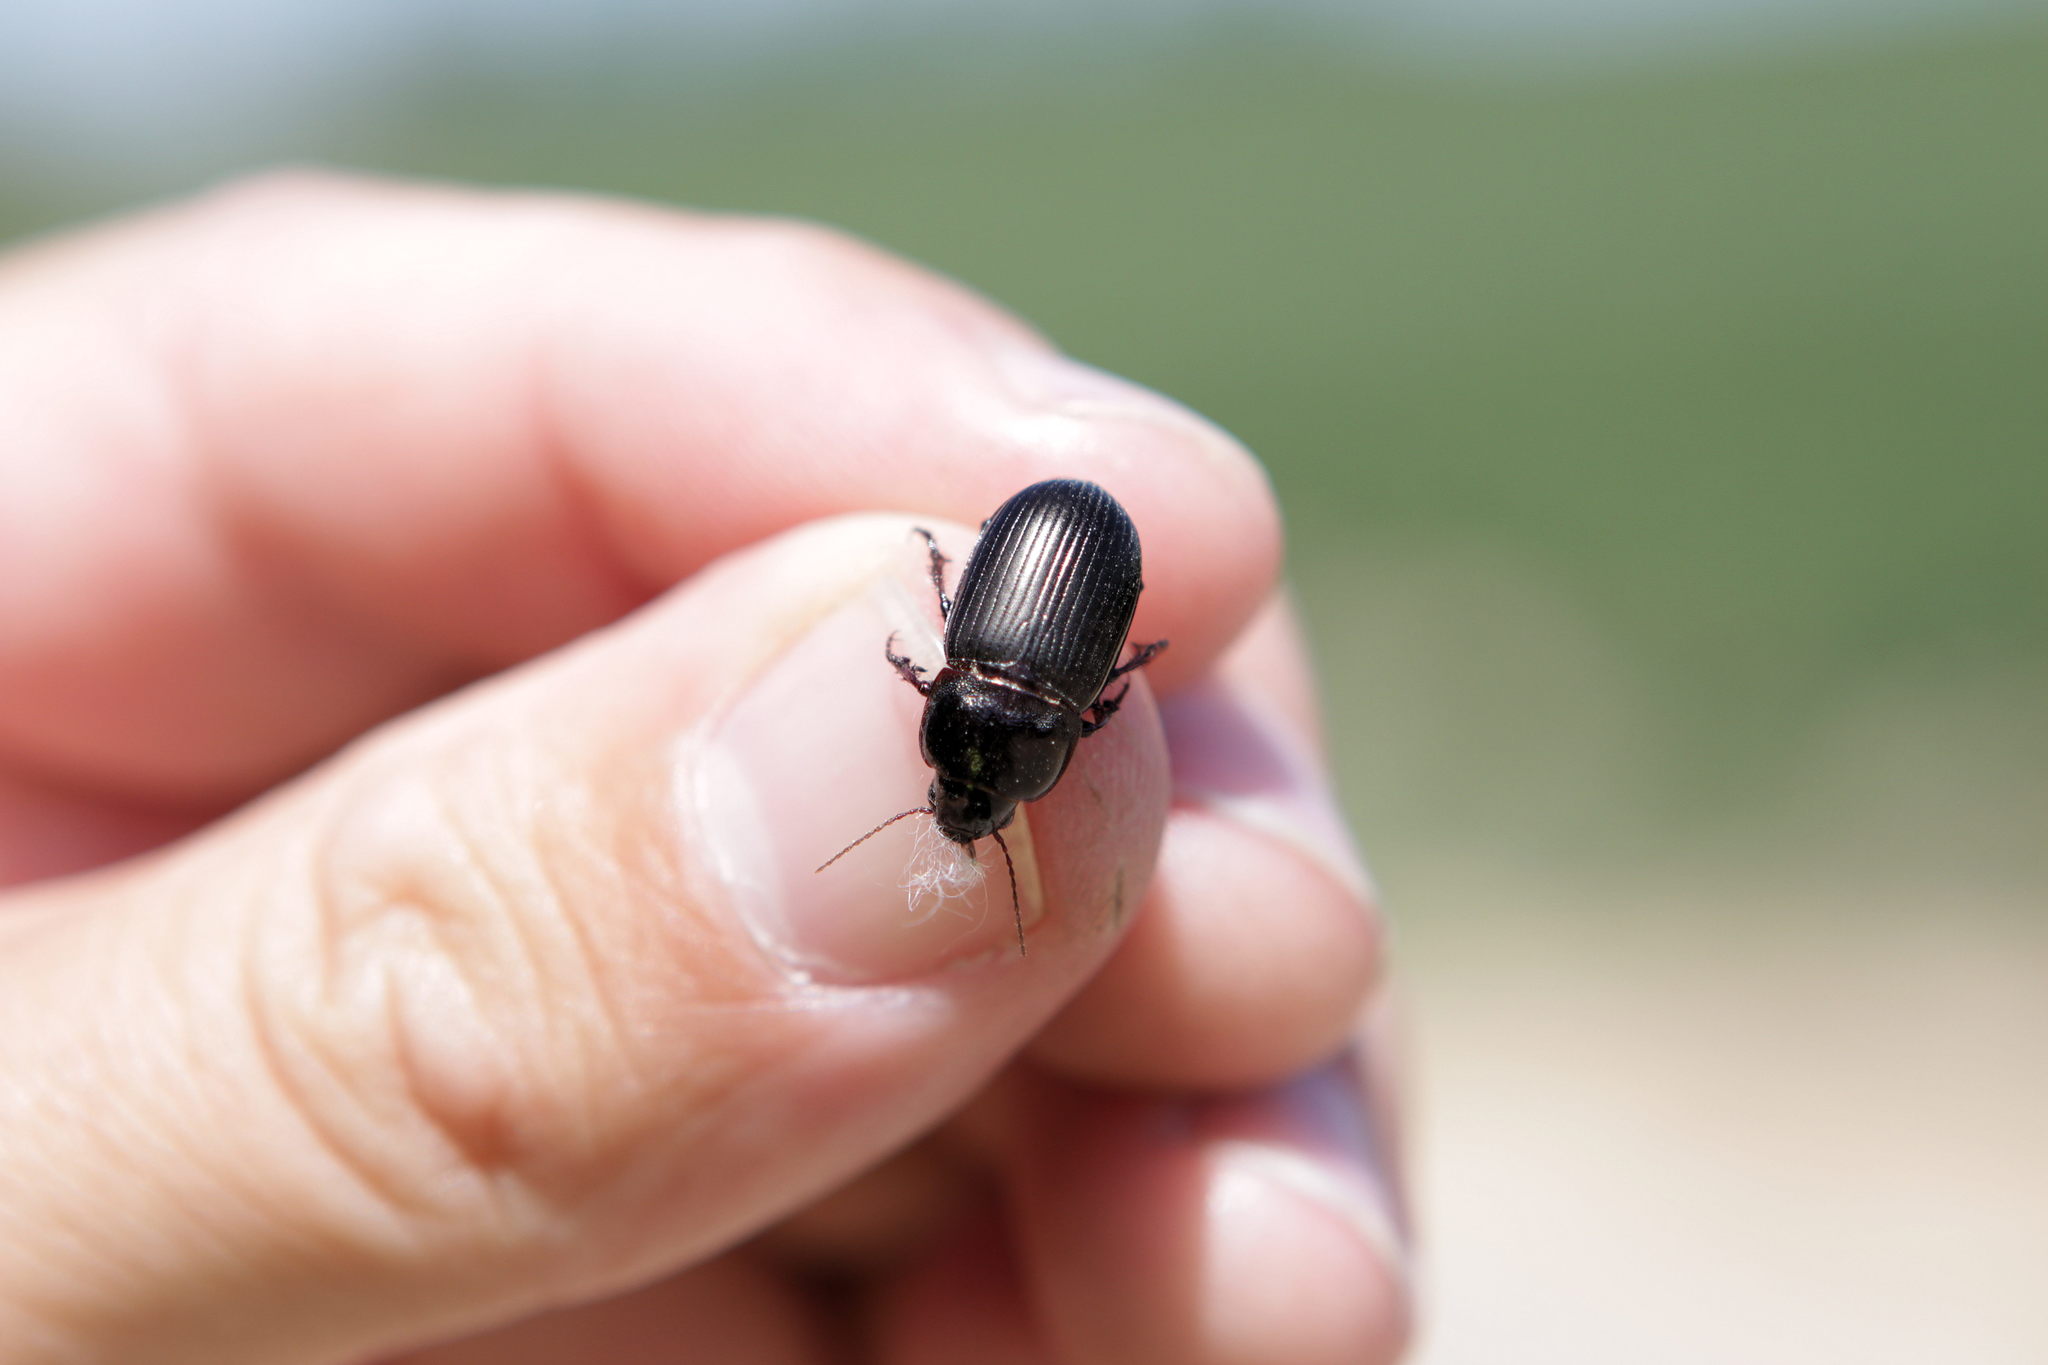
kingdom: Animalia
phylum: Arthropoda
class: Insecta
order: Coleoptera
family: Carabidae
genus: Zabrus
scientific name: Zabrus tenebrioides
